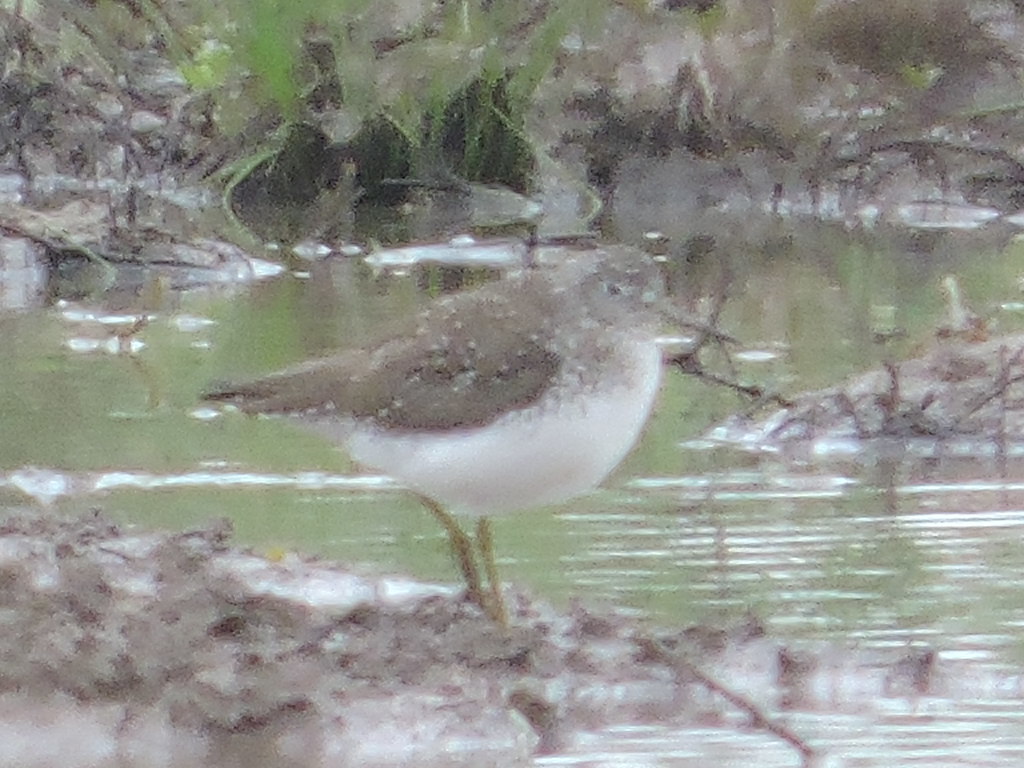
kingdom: Animalia
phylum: Chordata
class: Aves
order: Charadriiformes
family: Scolopacidae
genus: Tringa
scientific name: Tringa solitaria
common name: Solitary sandpiper
